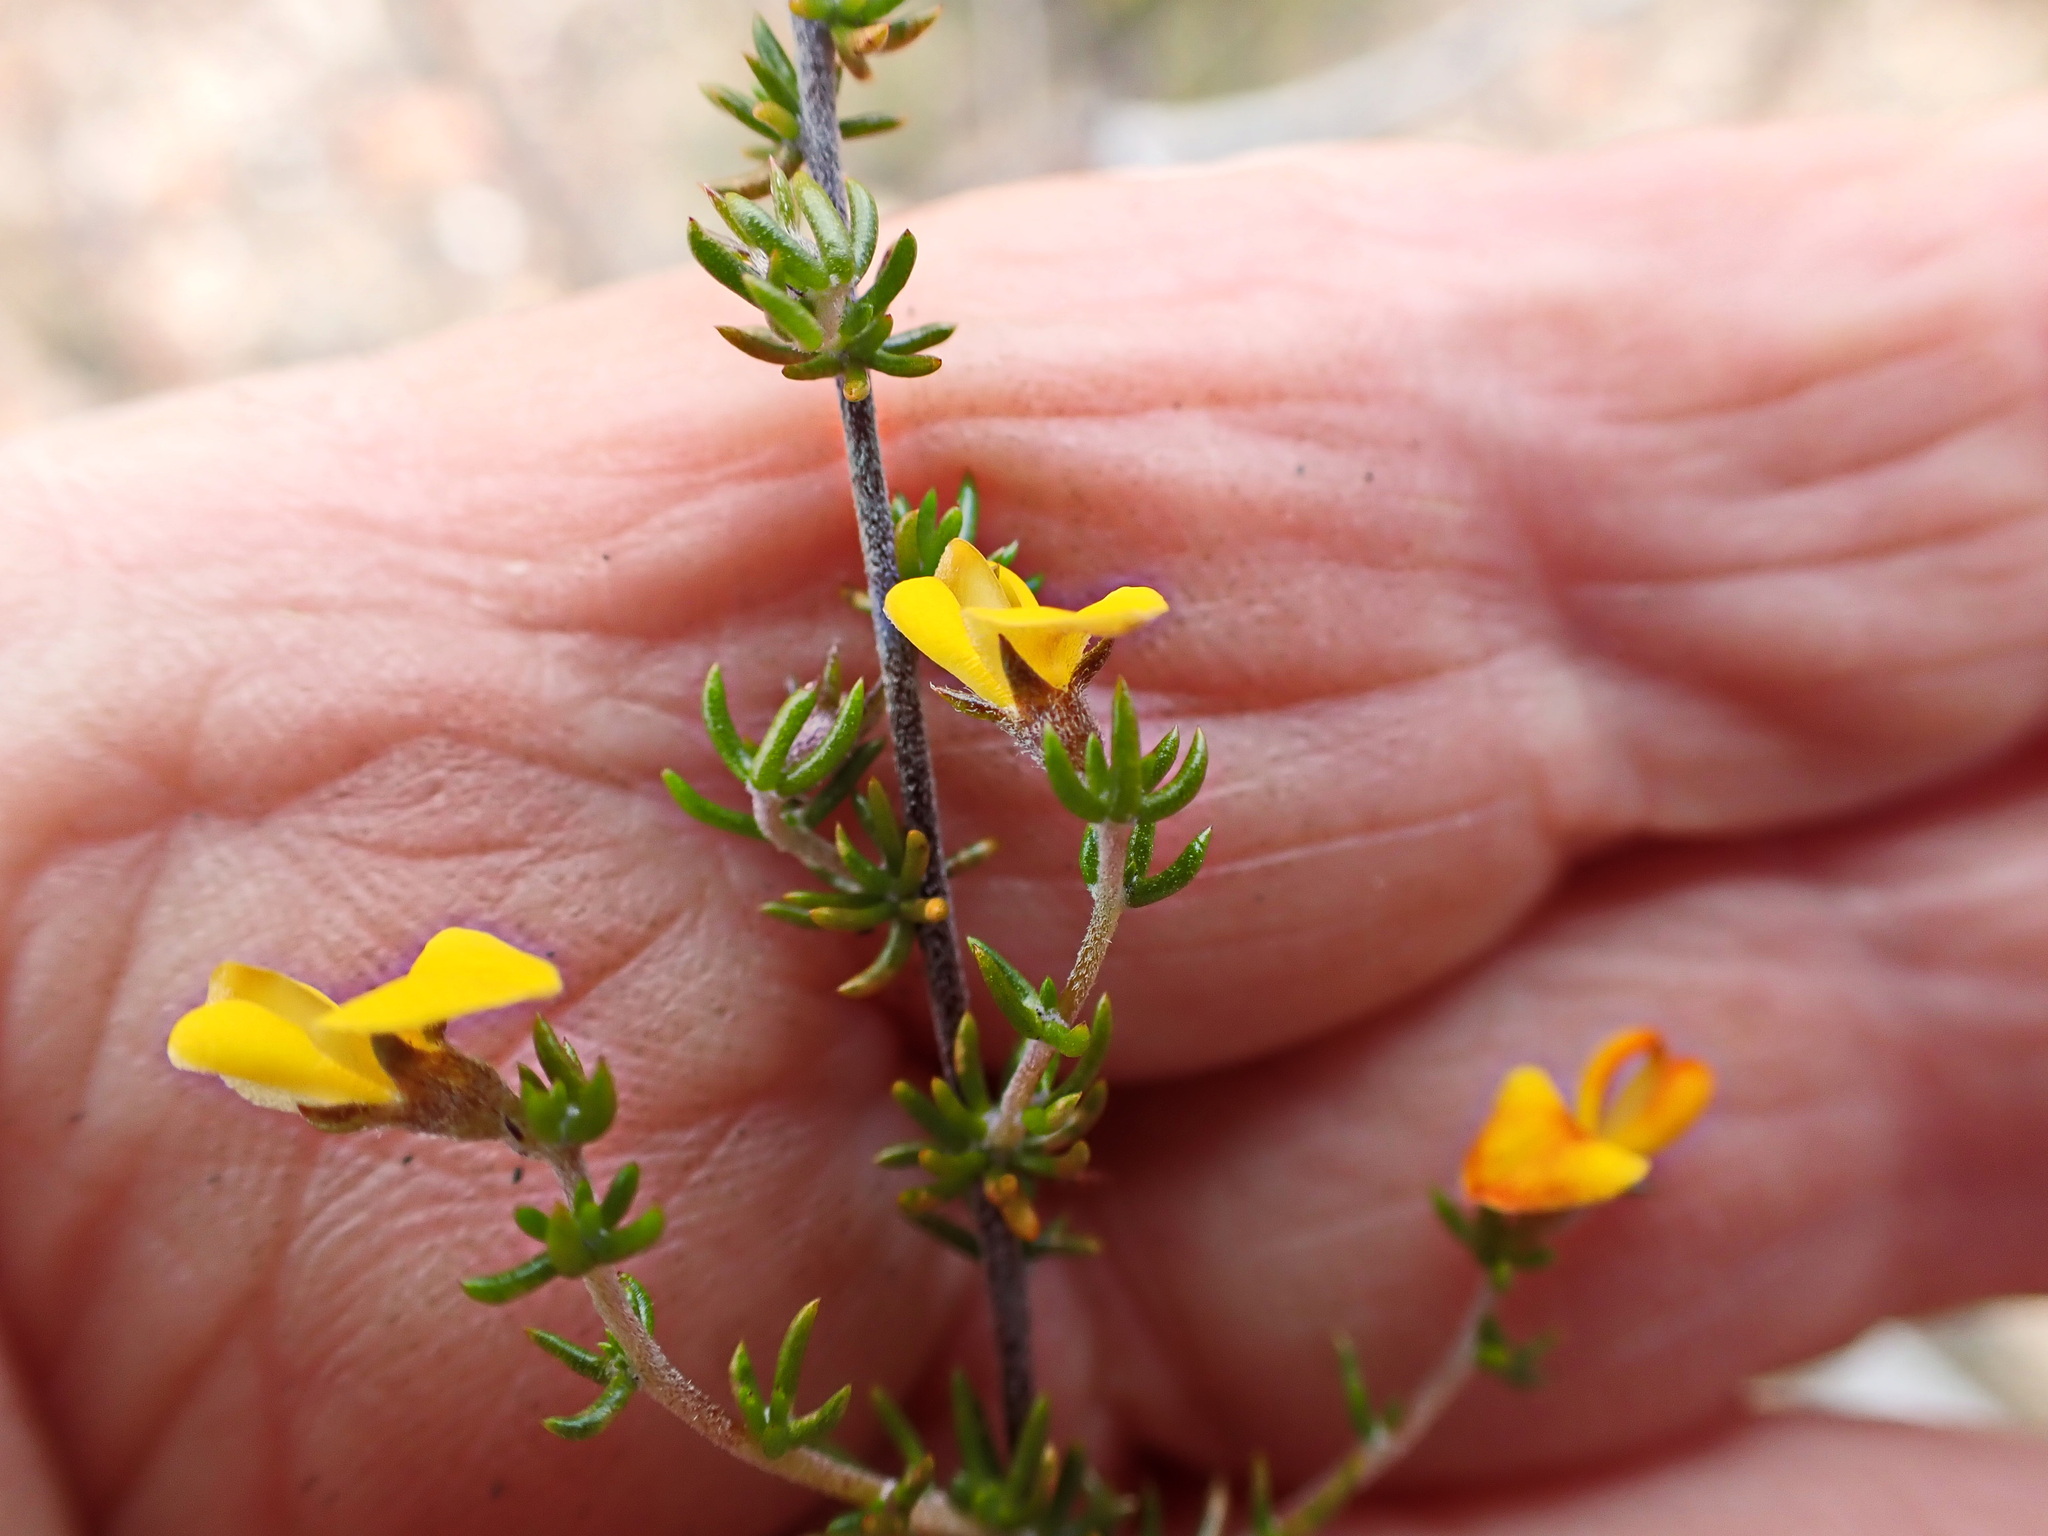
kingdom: Plantae
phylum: Tracheophyta
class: Magnoliopsida
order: Fabales
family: Fabaceae
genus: Aspalathus
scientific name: Aspalathus rubens
